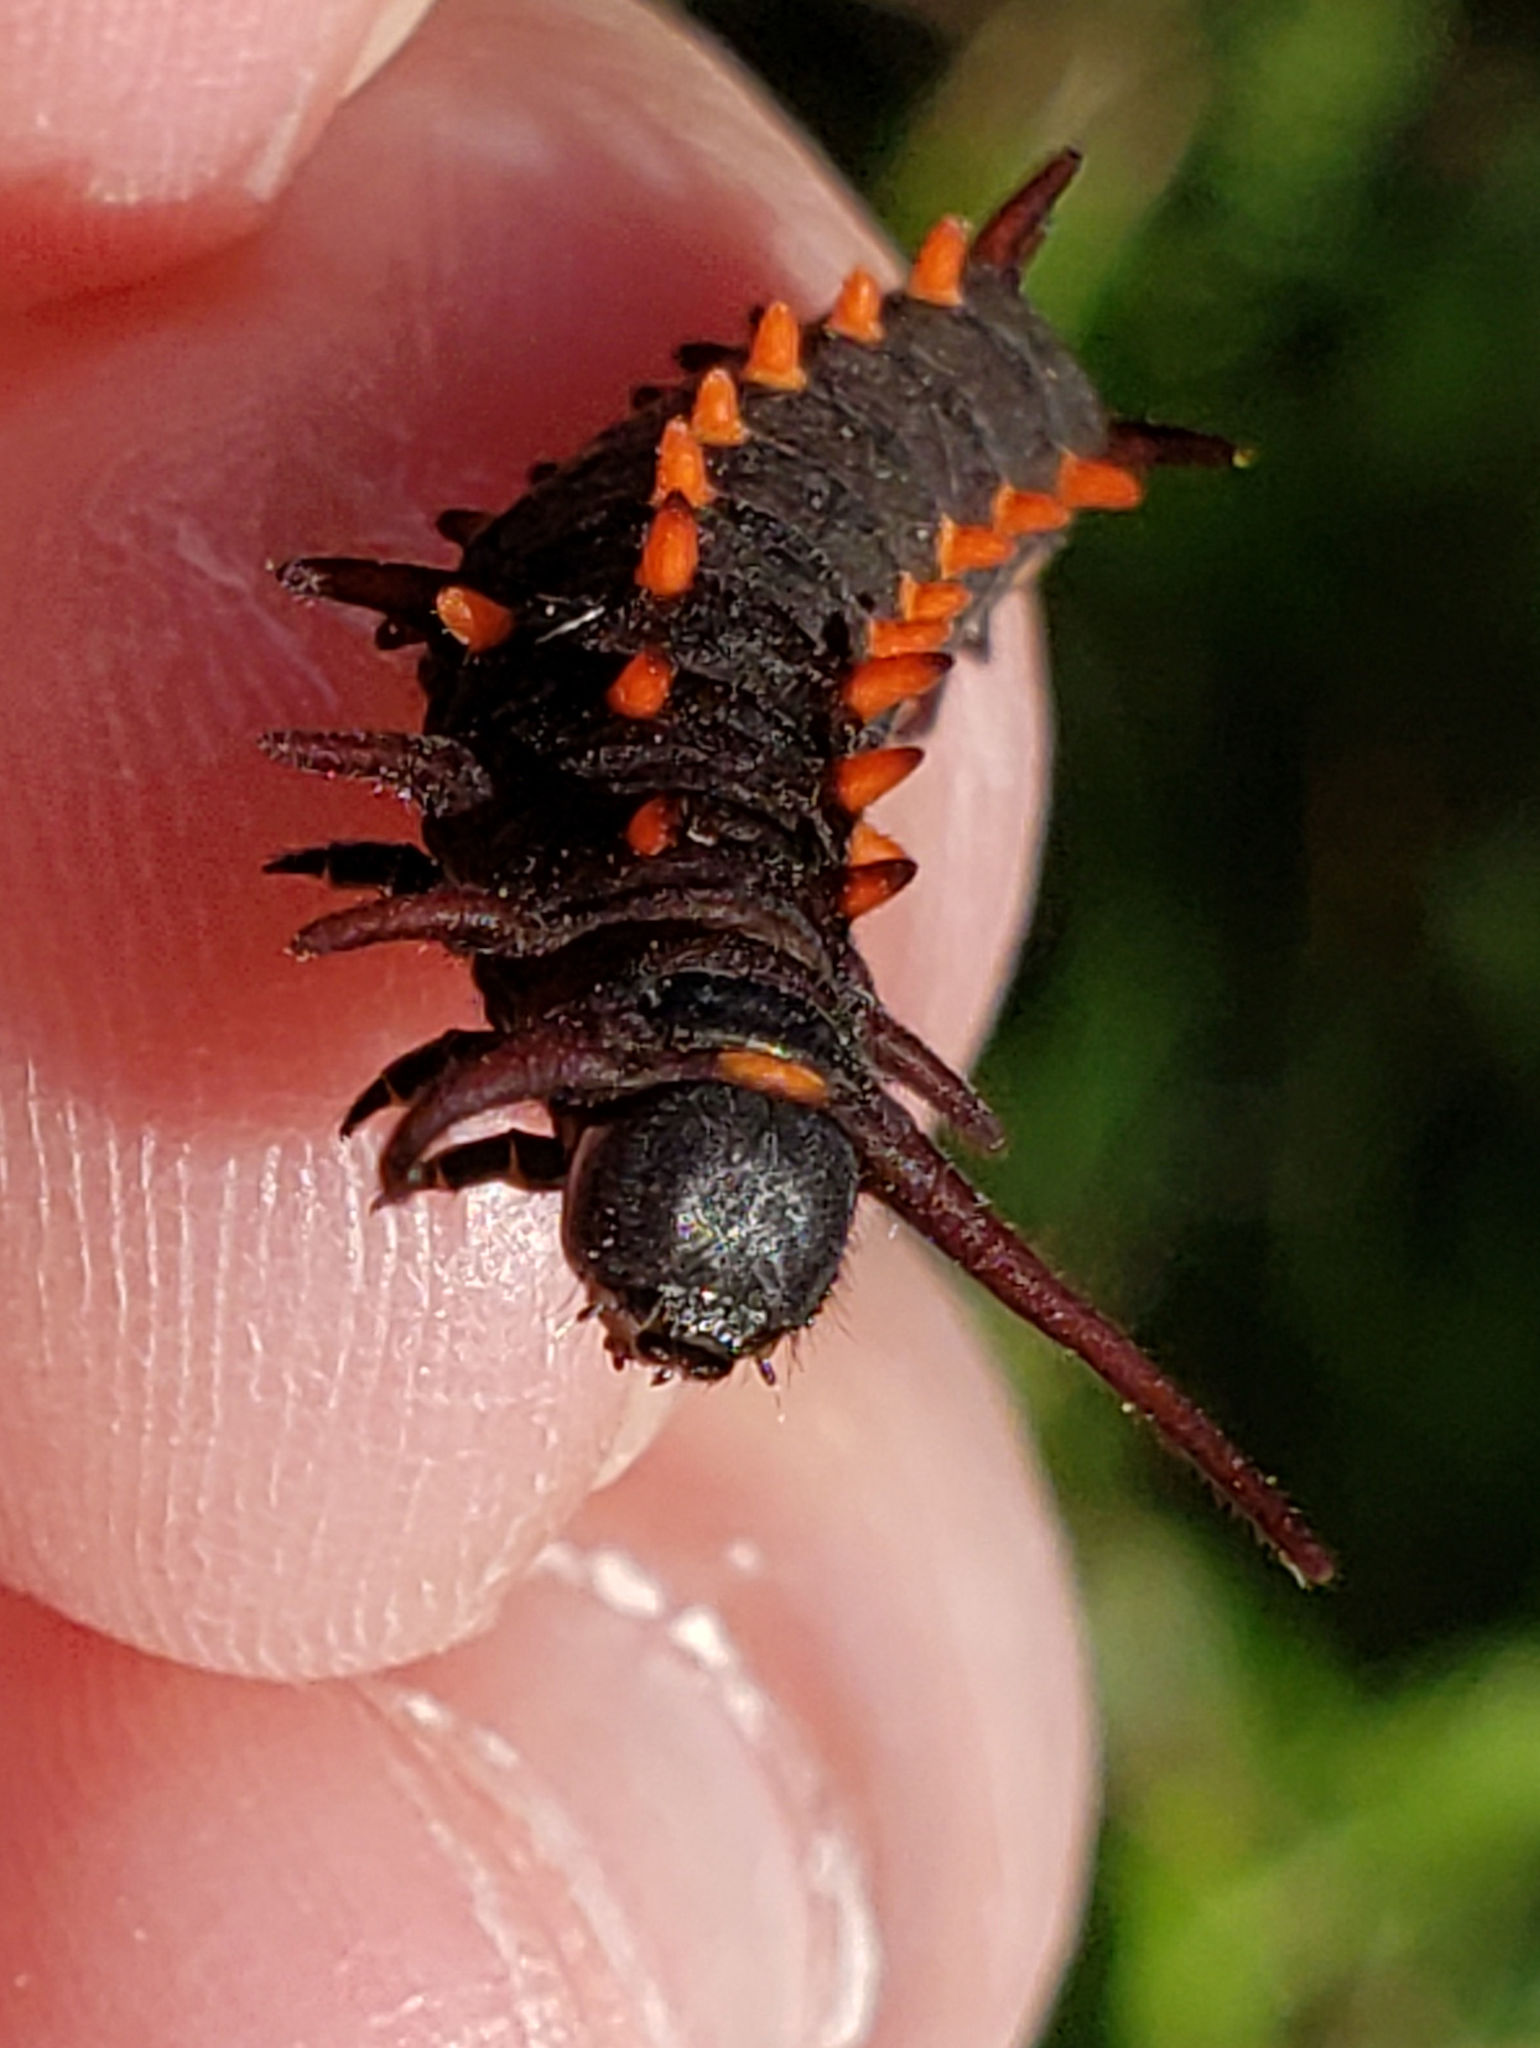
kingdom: Animalia
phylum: Arthropoda
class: Insecta
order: Lepidoptera
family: Papilionidae
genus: Battus
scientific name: Battus philenor
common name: Pipevine swallowtail
